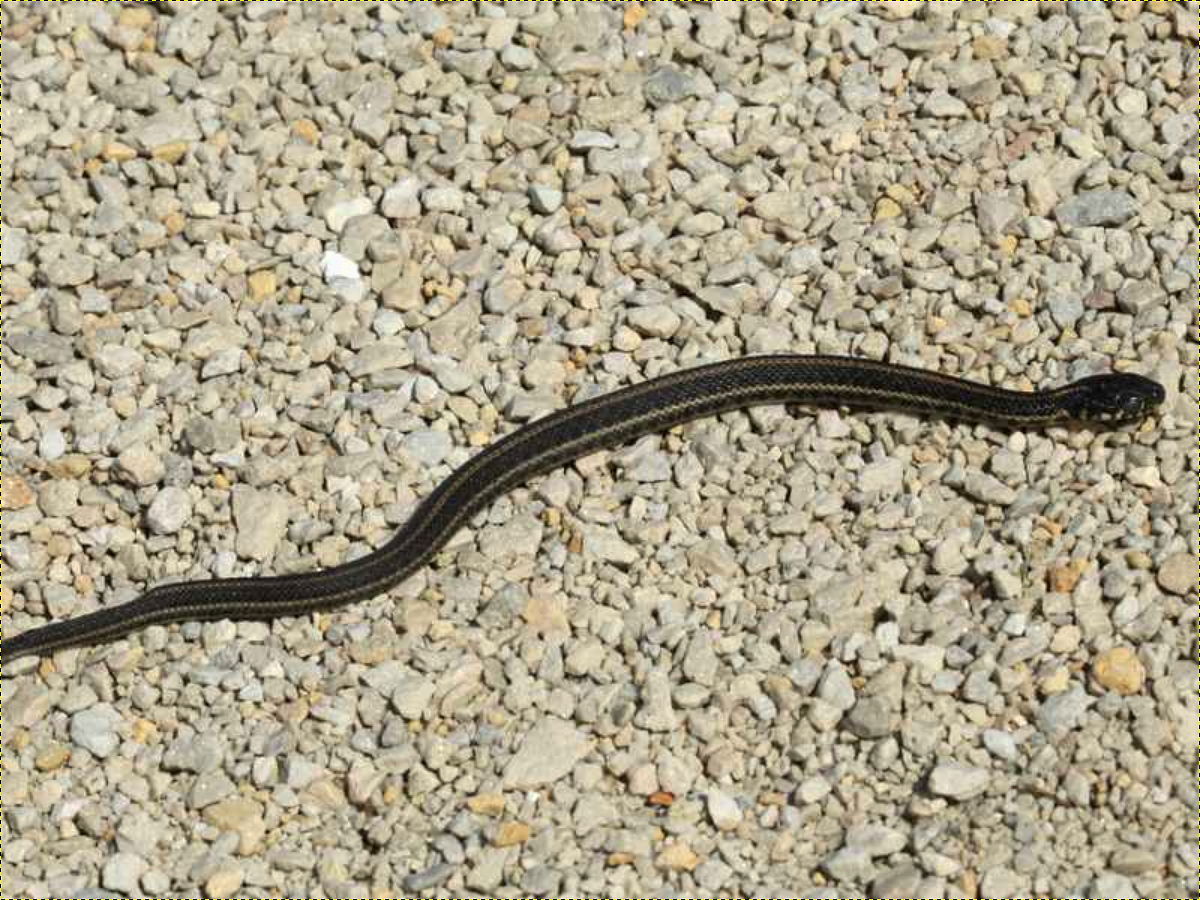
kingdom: Animalia
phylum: Chordata
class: Squamata
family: Colubridae
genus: Thamnophis
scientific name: Thamnophis radix
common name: Plains garter snake
